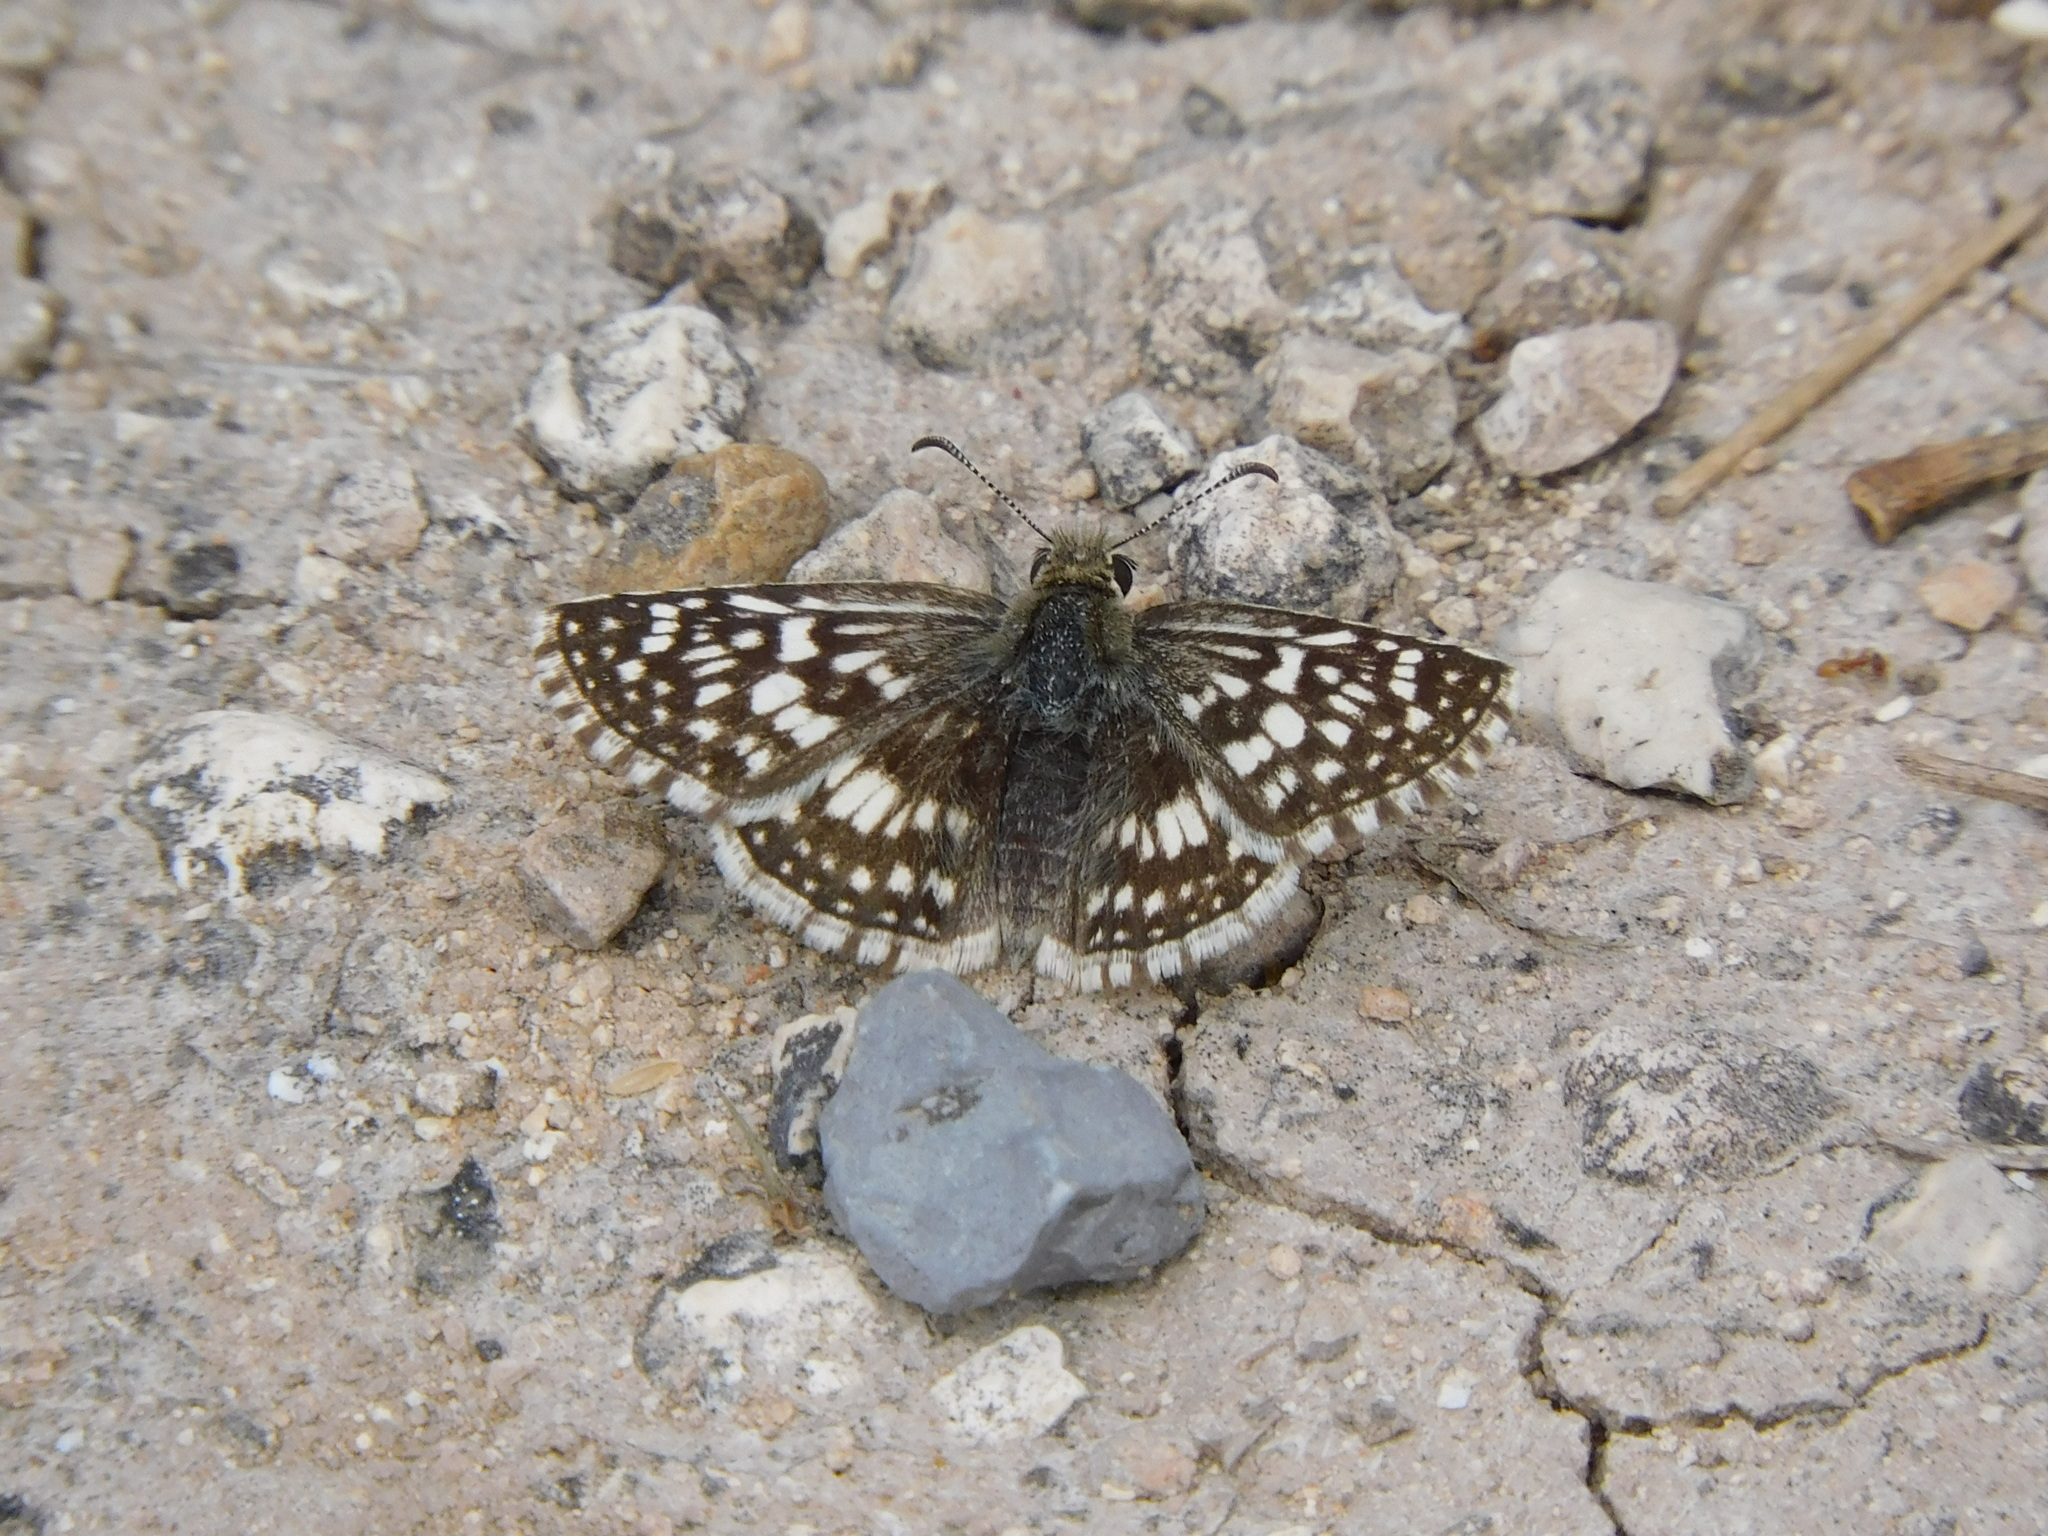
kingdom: Animalia
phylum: Arthropoda
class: Insecta
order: Lepidoptera
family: Hesperiidae
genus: Burnsius
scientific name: Burnsius philetas
